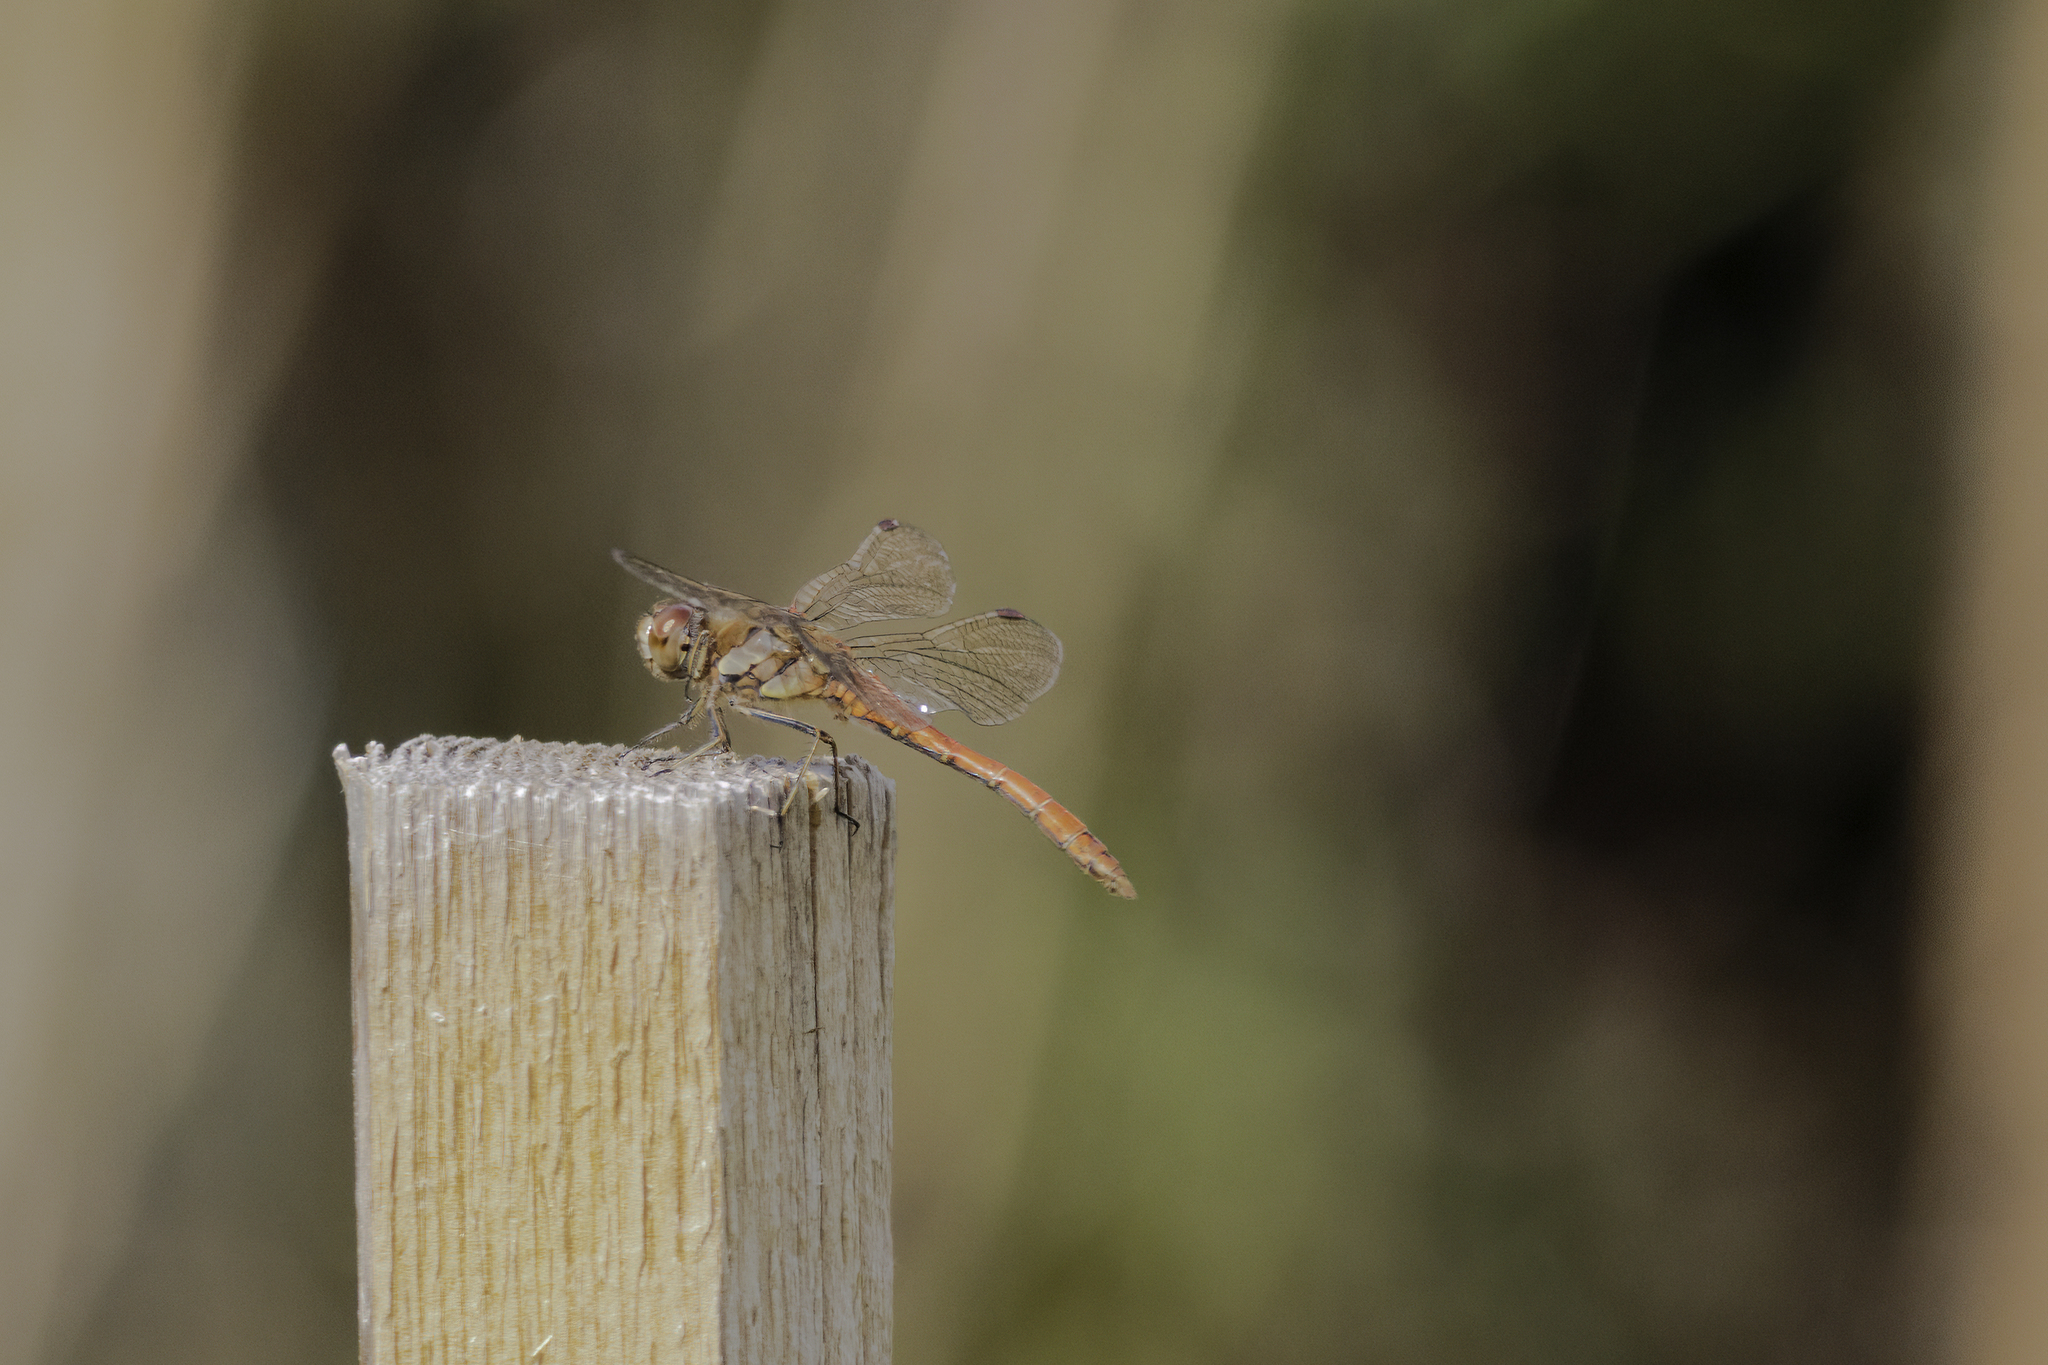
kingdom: Animalia
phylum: Arthropoda
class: Insecta
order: Odonata
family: Libellulidae
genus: Sympetrum
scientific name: Sympetrum striolatum
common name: Common darter
